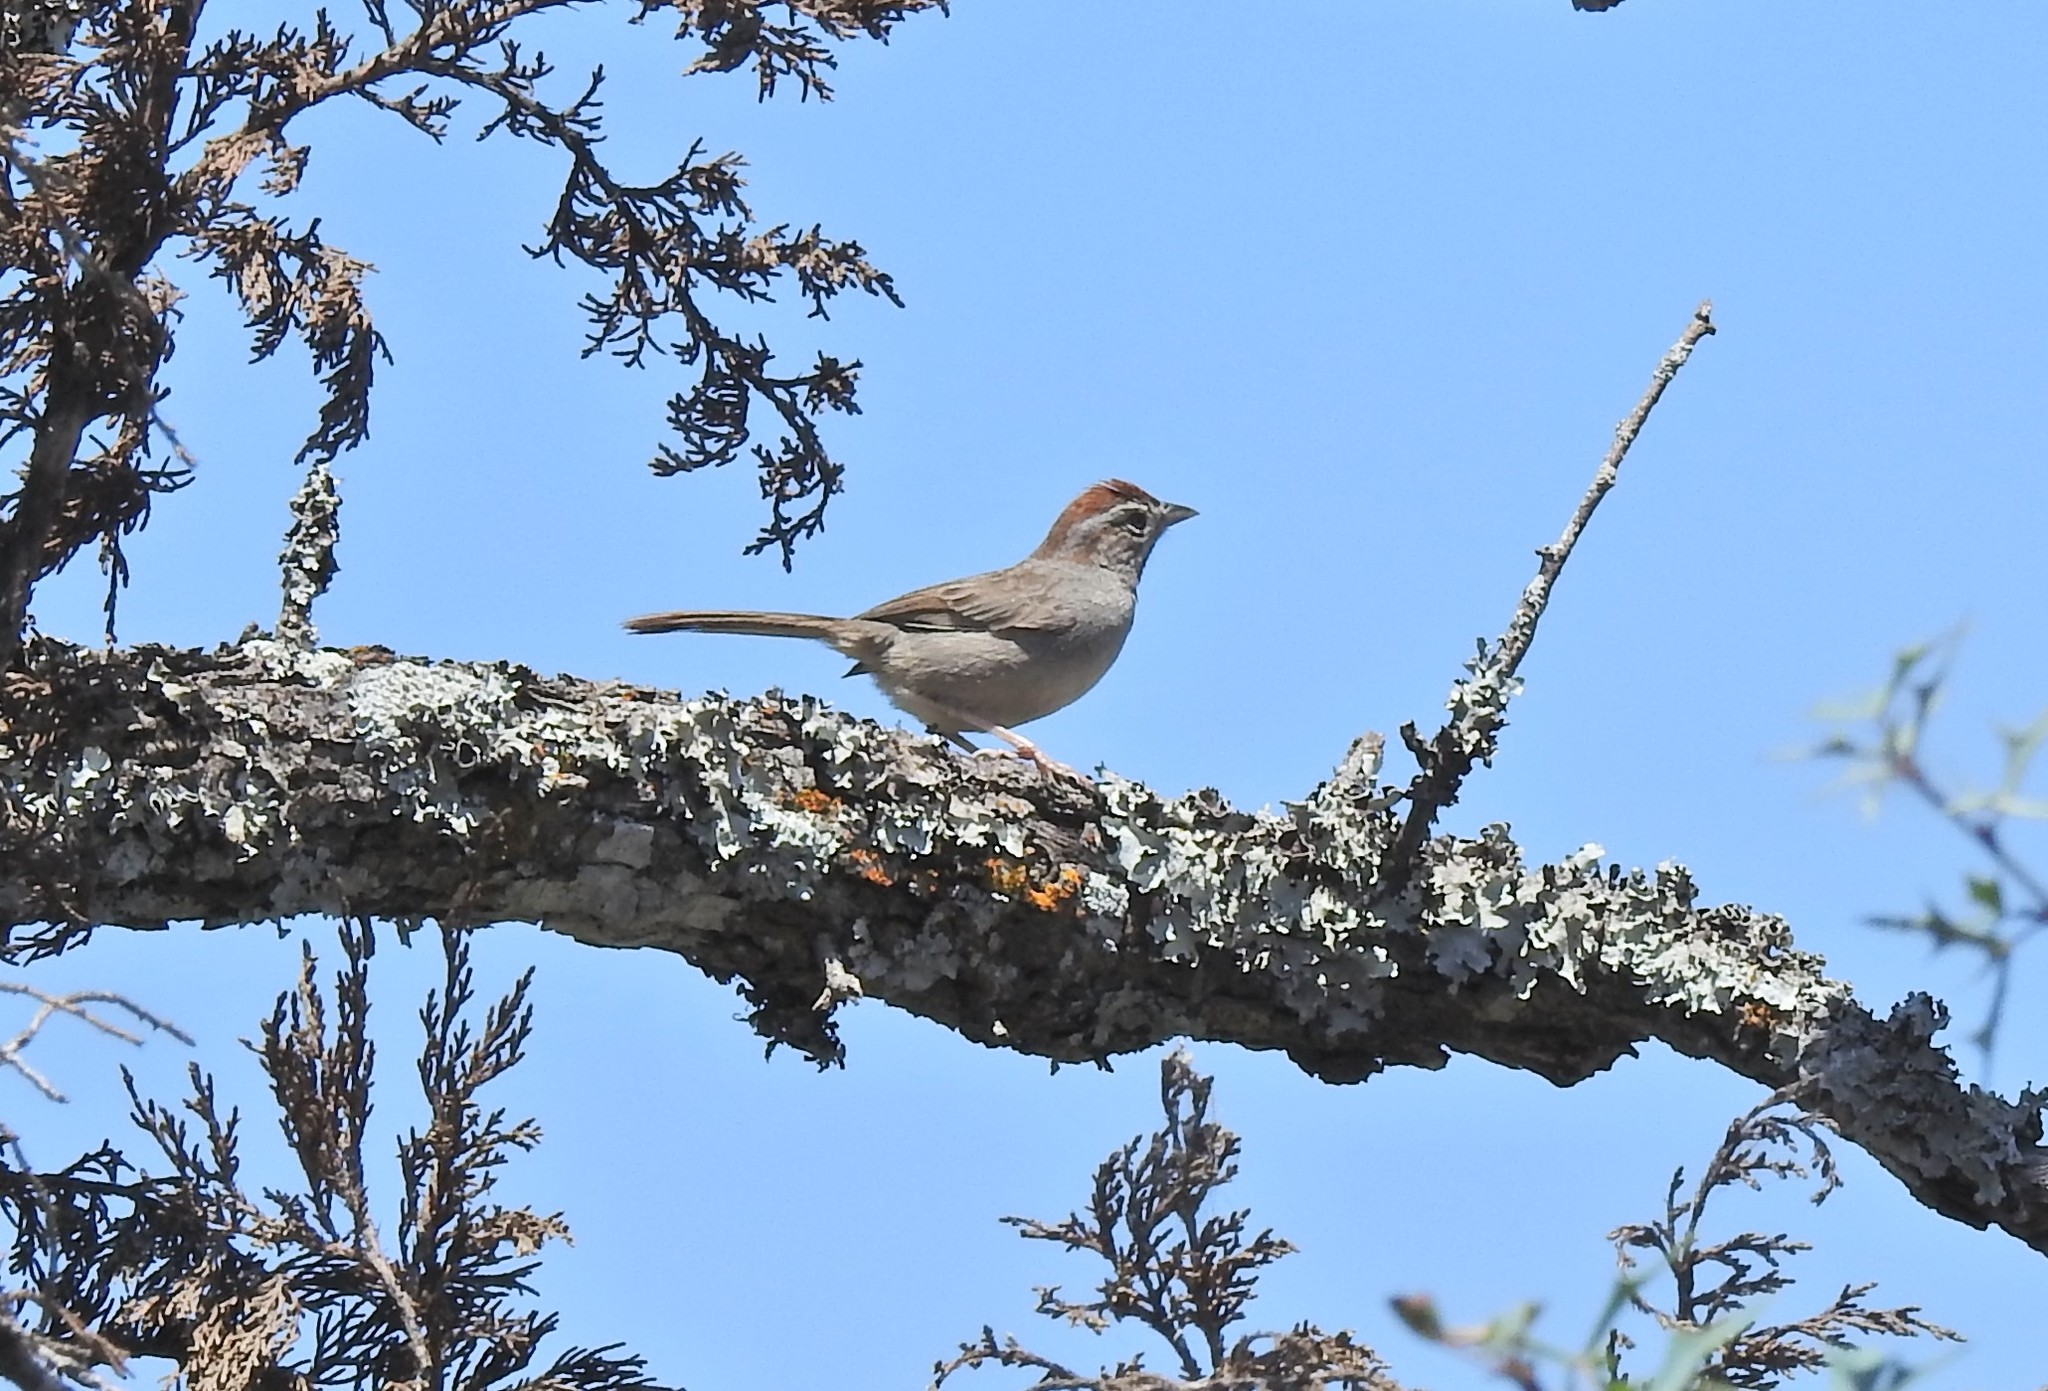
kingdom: Animalia
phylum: Chordata
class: Aves
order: Passeriformes
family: Passerellidae
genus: Aimophila
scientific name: Aimophila ruficeps
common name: Rufous-crowned sparrow
